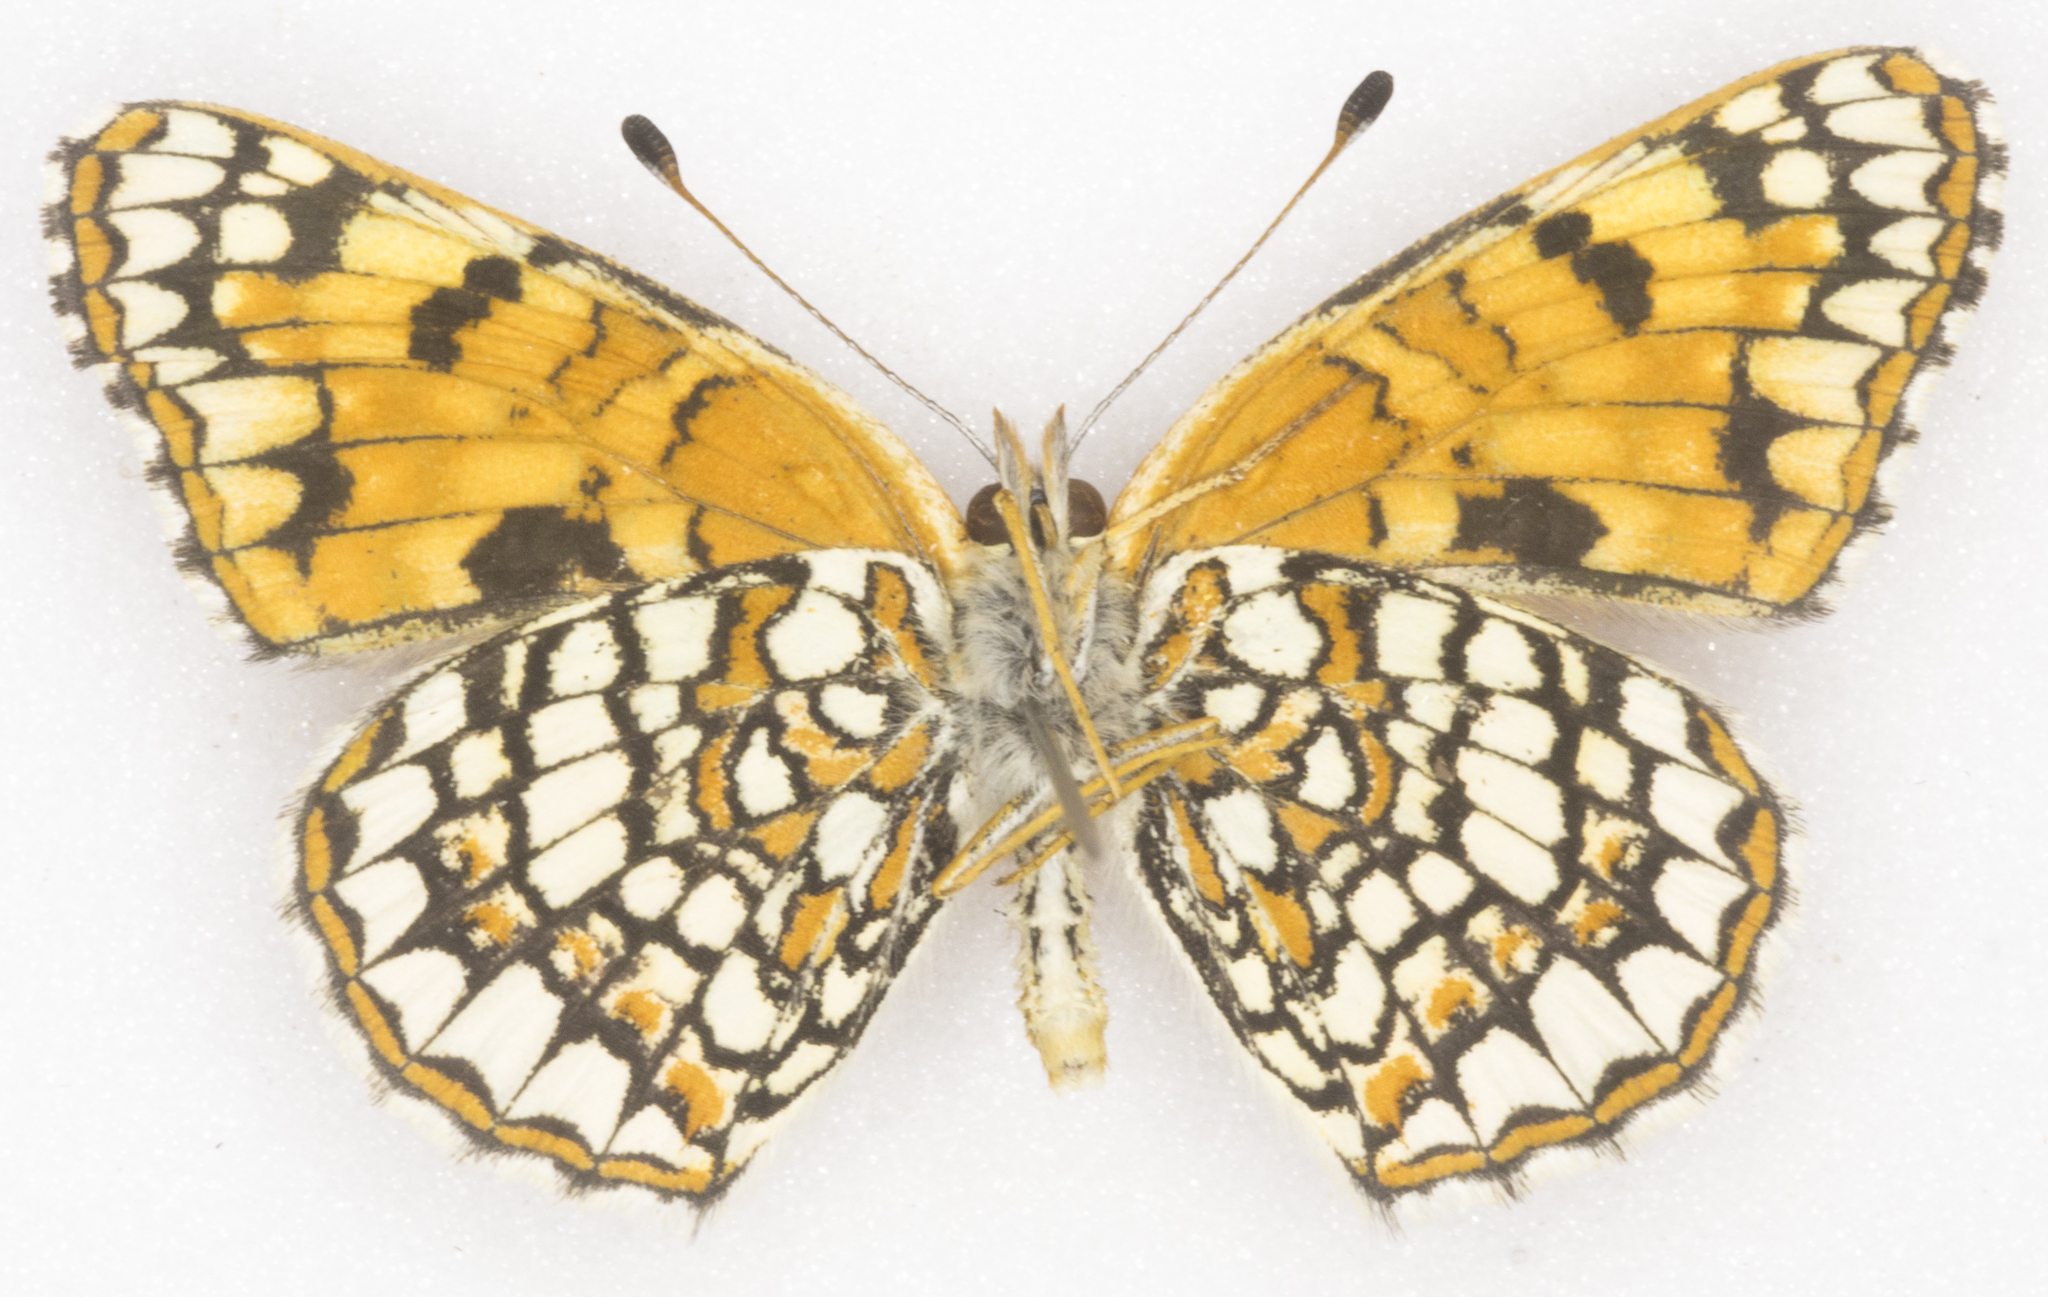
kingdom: Animalia
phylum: Arthropoda
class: Insecta
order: Lepidoptera
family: Nymphalidae
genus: Chlosyne
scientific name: Chlosyne acastus
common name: Sagebrush checkerspot
